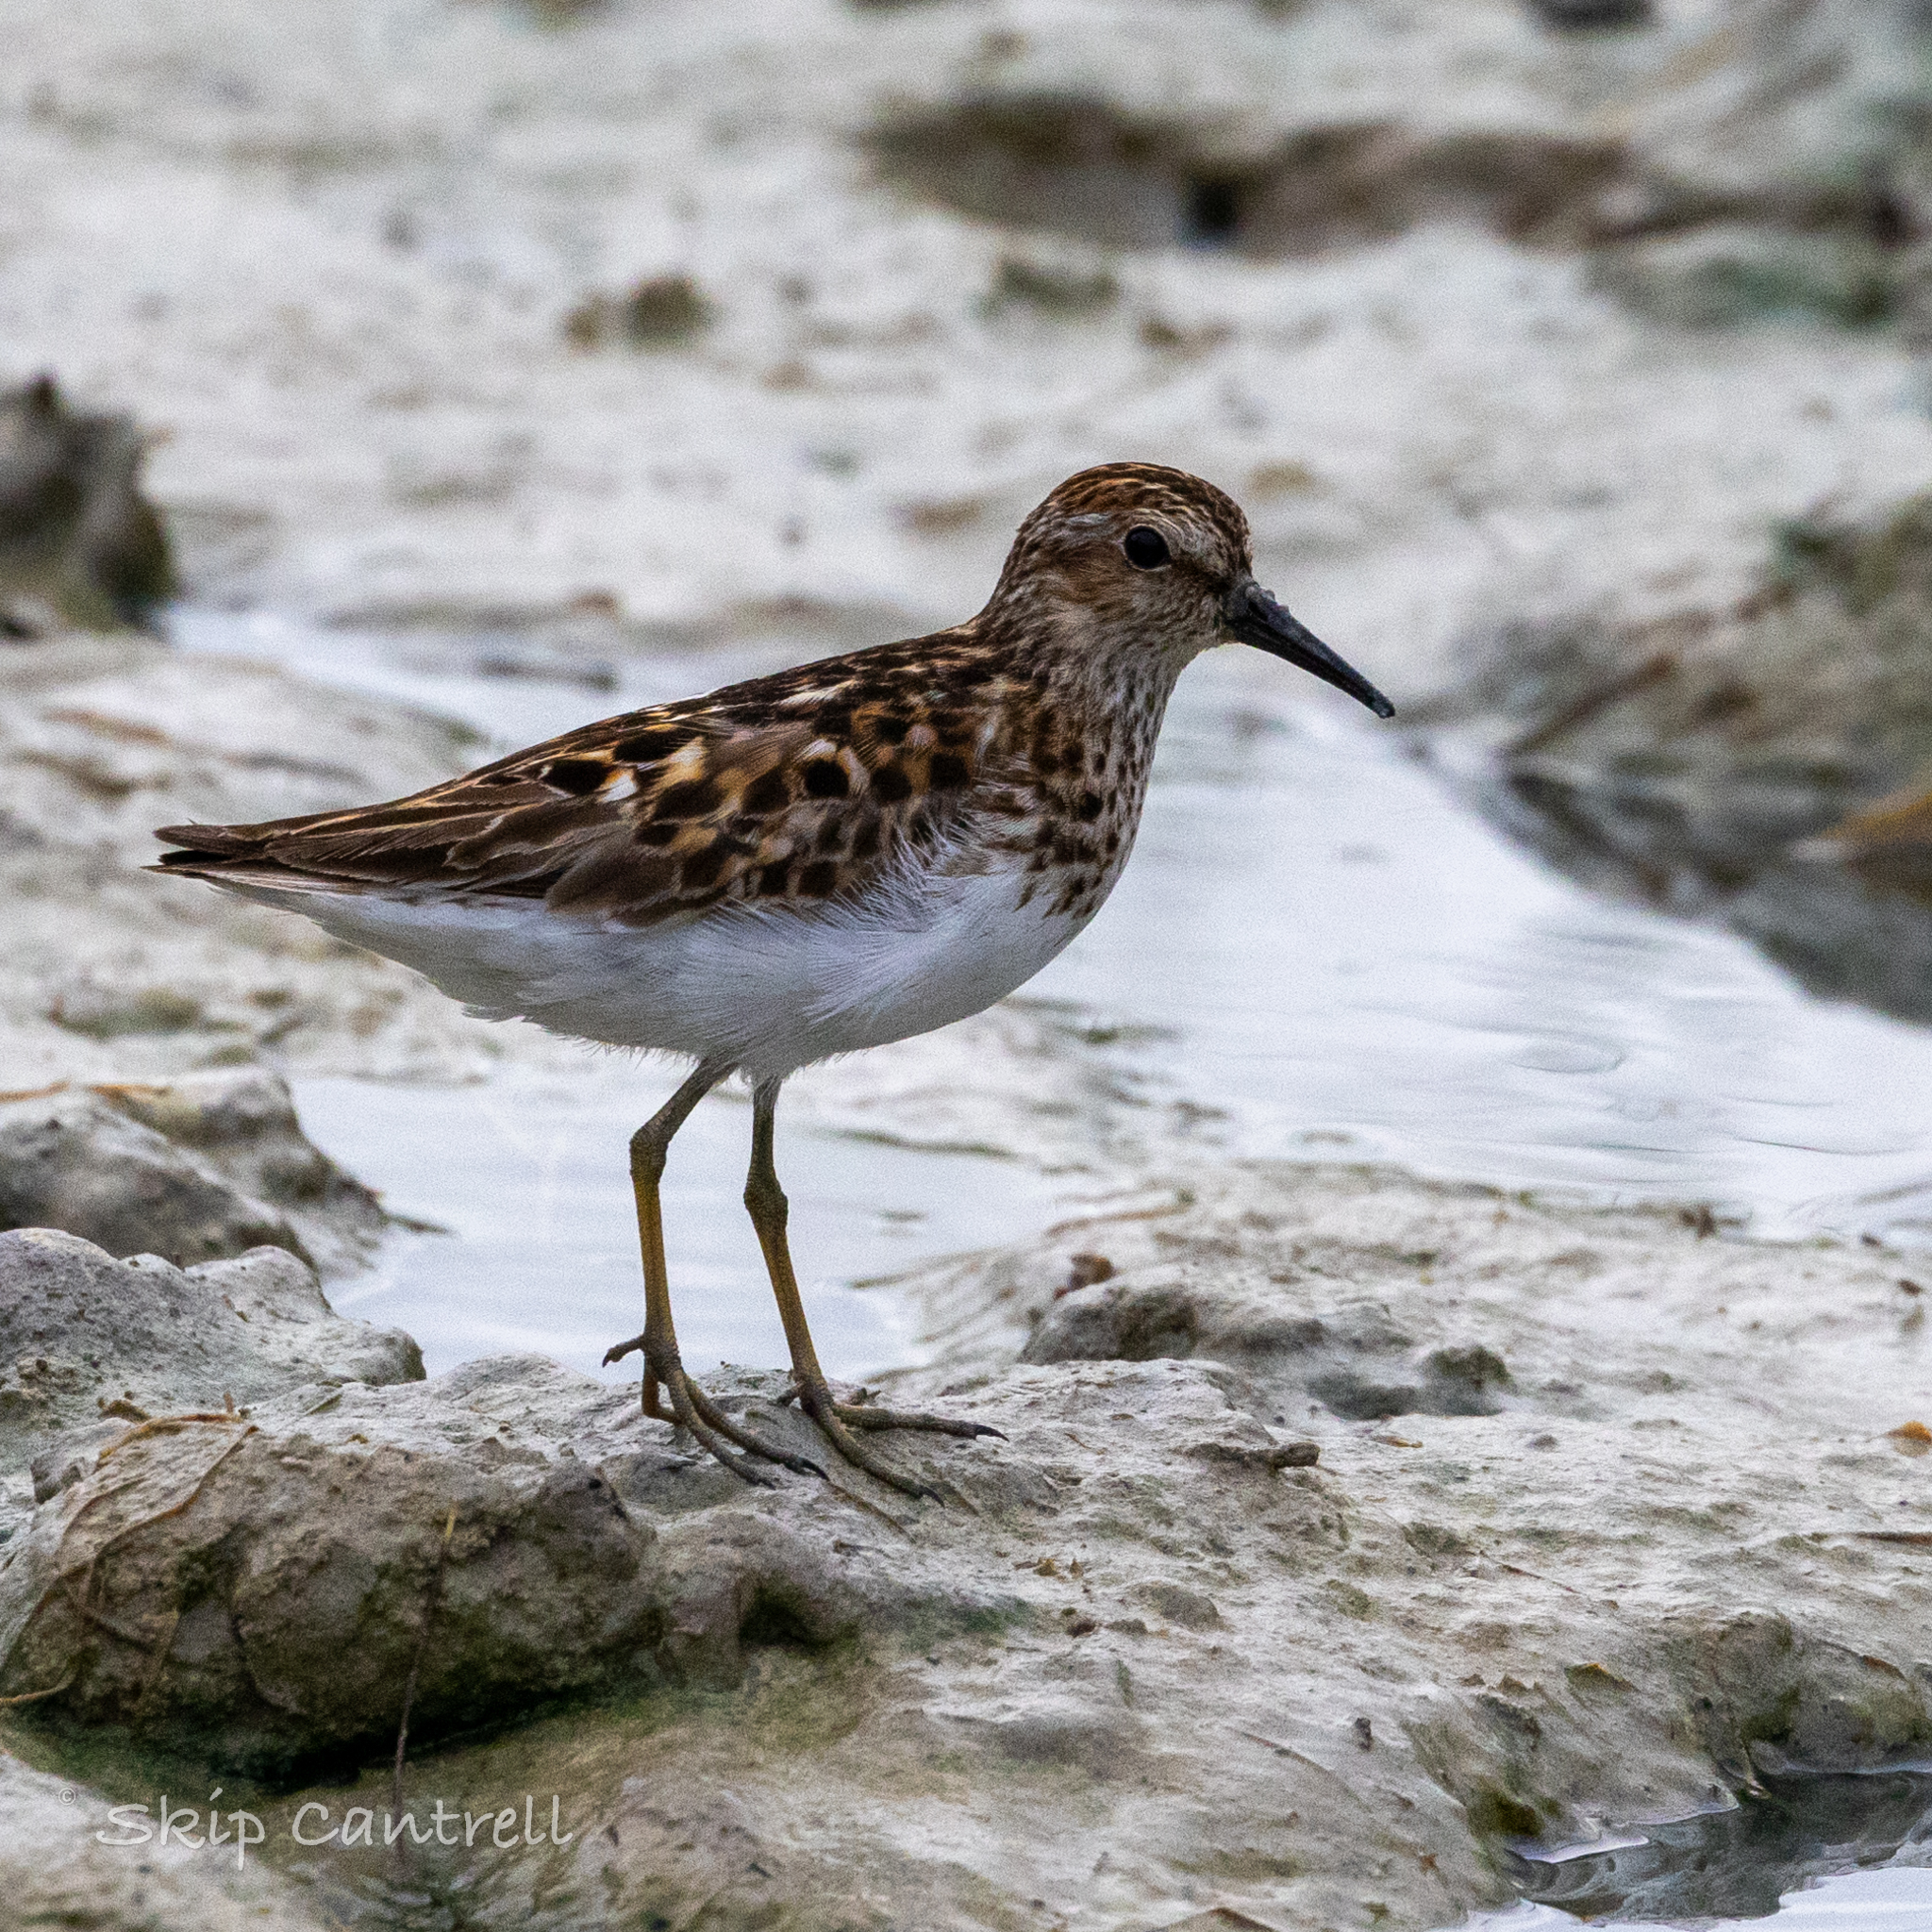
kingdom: Animalia
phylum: Chordata
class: Aves
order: Charadriiformes
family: Scolopacidae
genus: Calidris
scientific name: Calidris minutilla
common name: Least sandpiper
